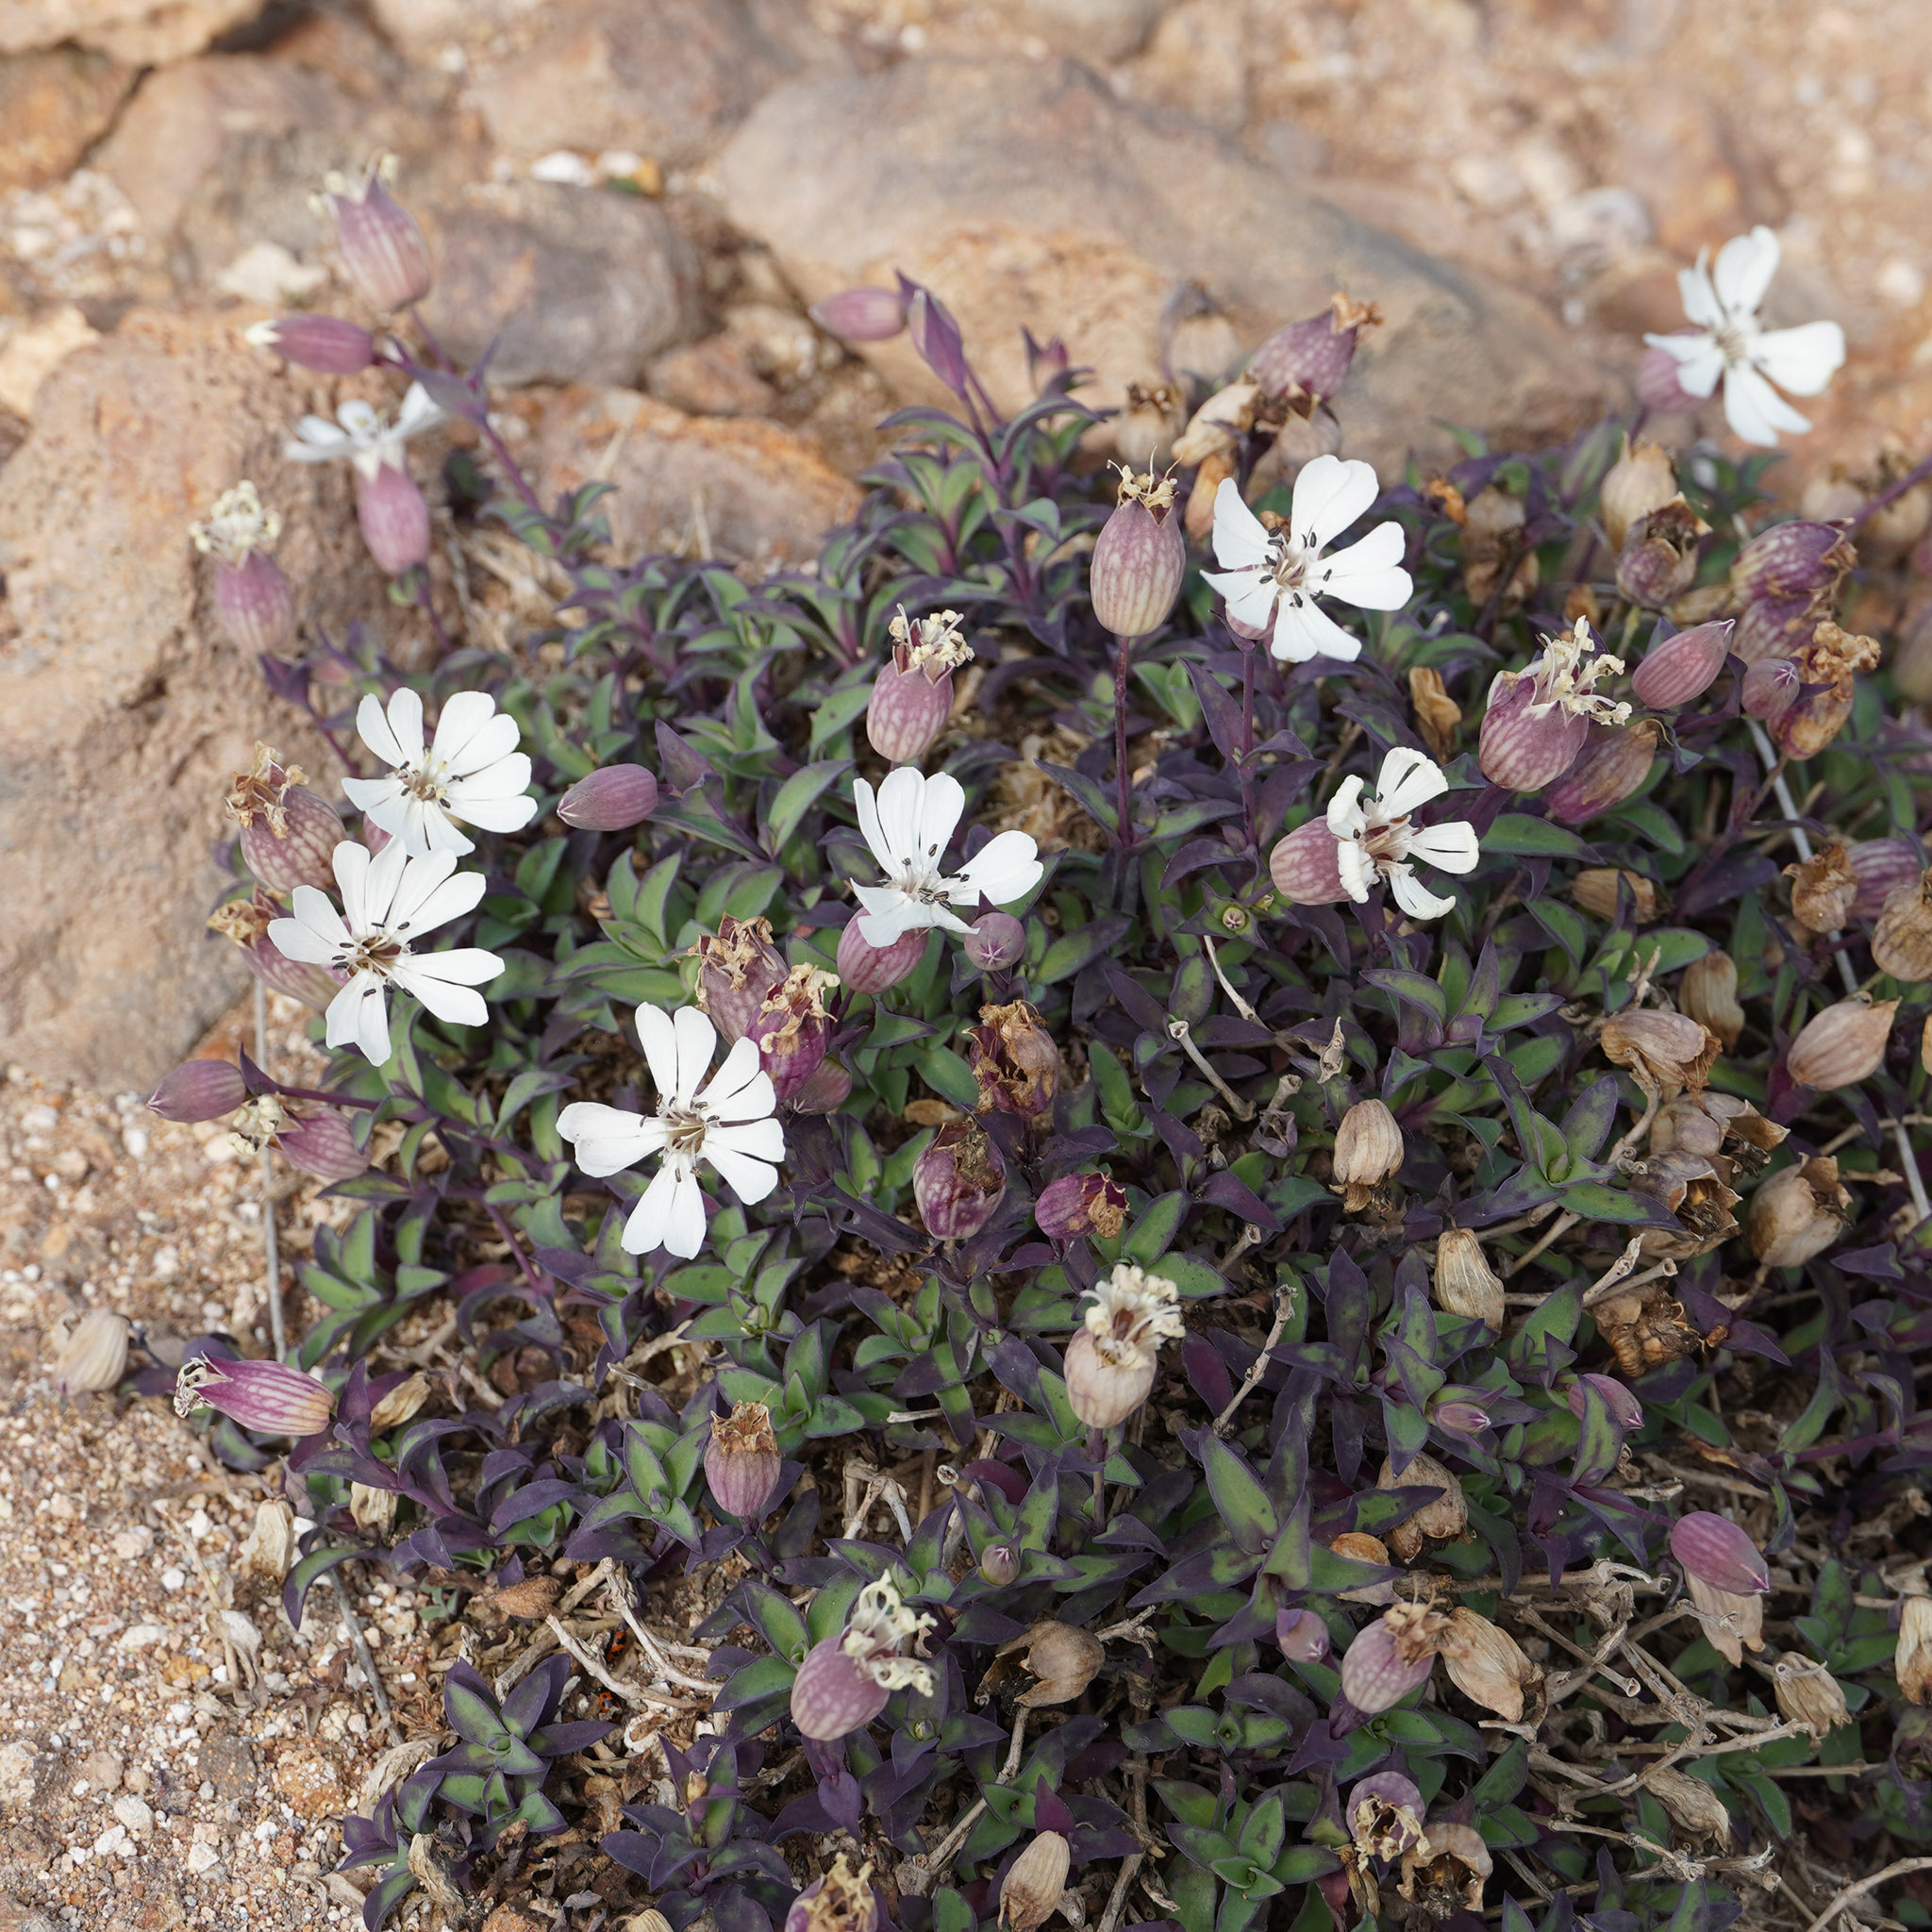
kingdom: Plantae
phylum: Tracheophyta
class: Magnoliopsida
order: Caryophyllales
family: Caryophyllaceae
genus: Silene
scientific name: Silene uniflora
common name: Sea campion
